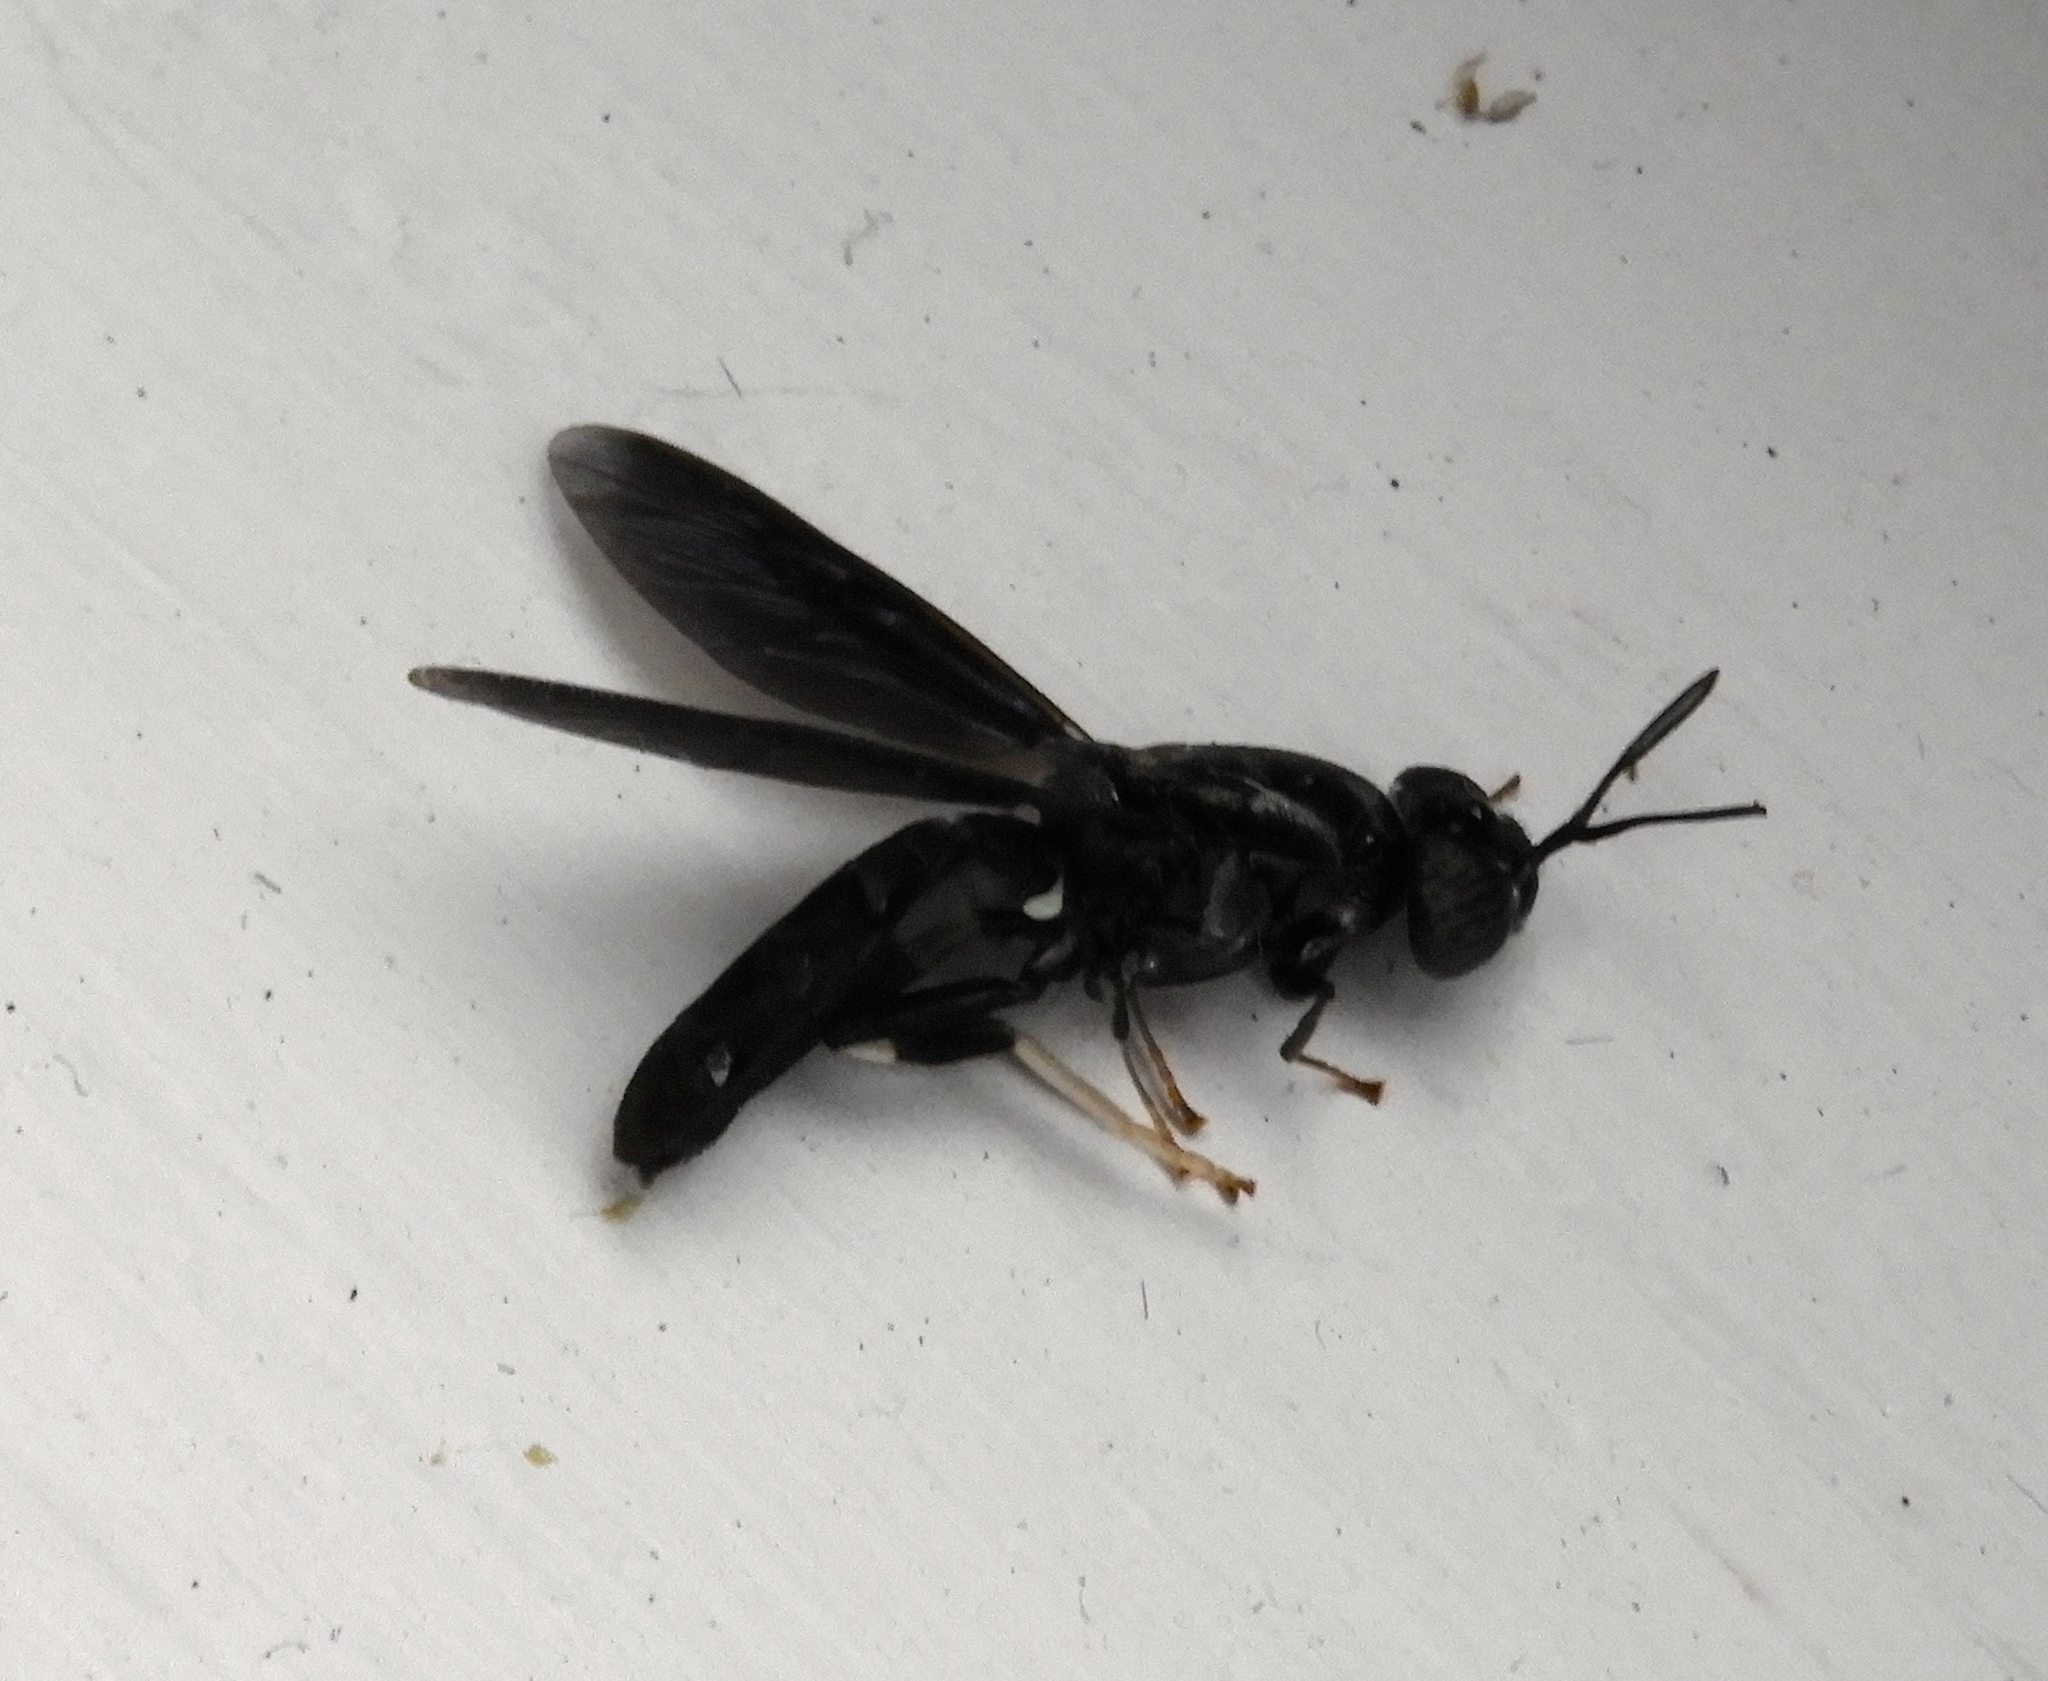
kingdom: Animalia
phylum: Arthropoda
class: Insecta
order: Diptera
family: Stratiomyidae
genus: Hermetia
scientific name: Hermetia
